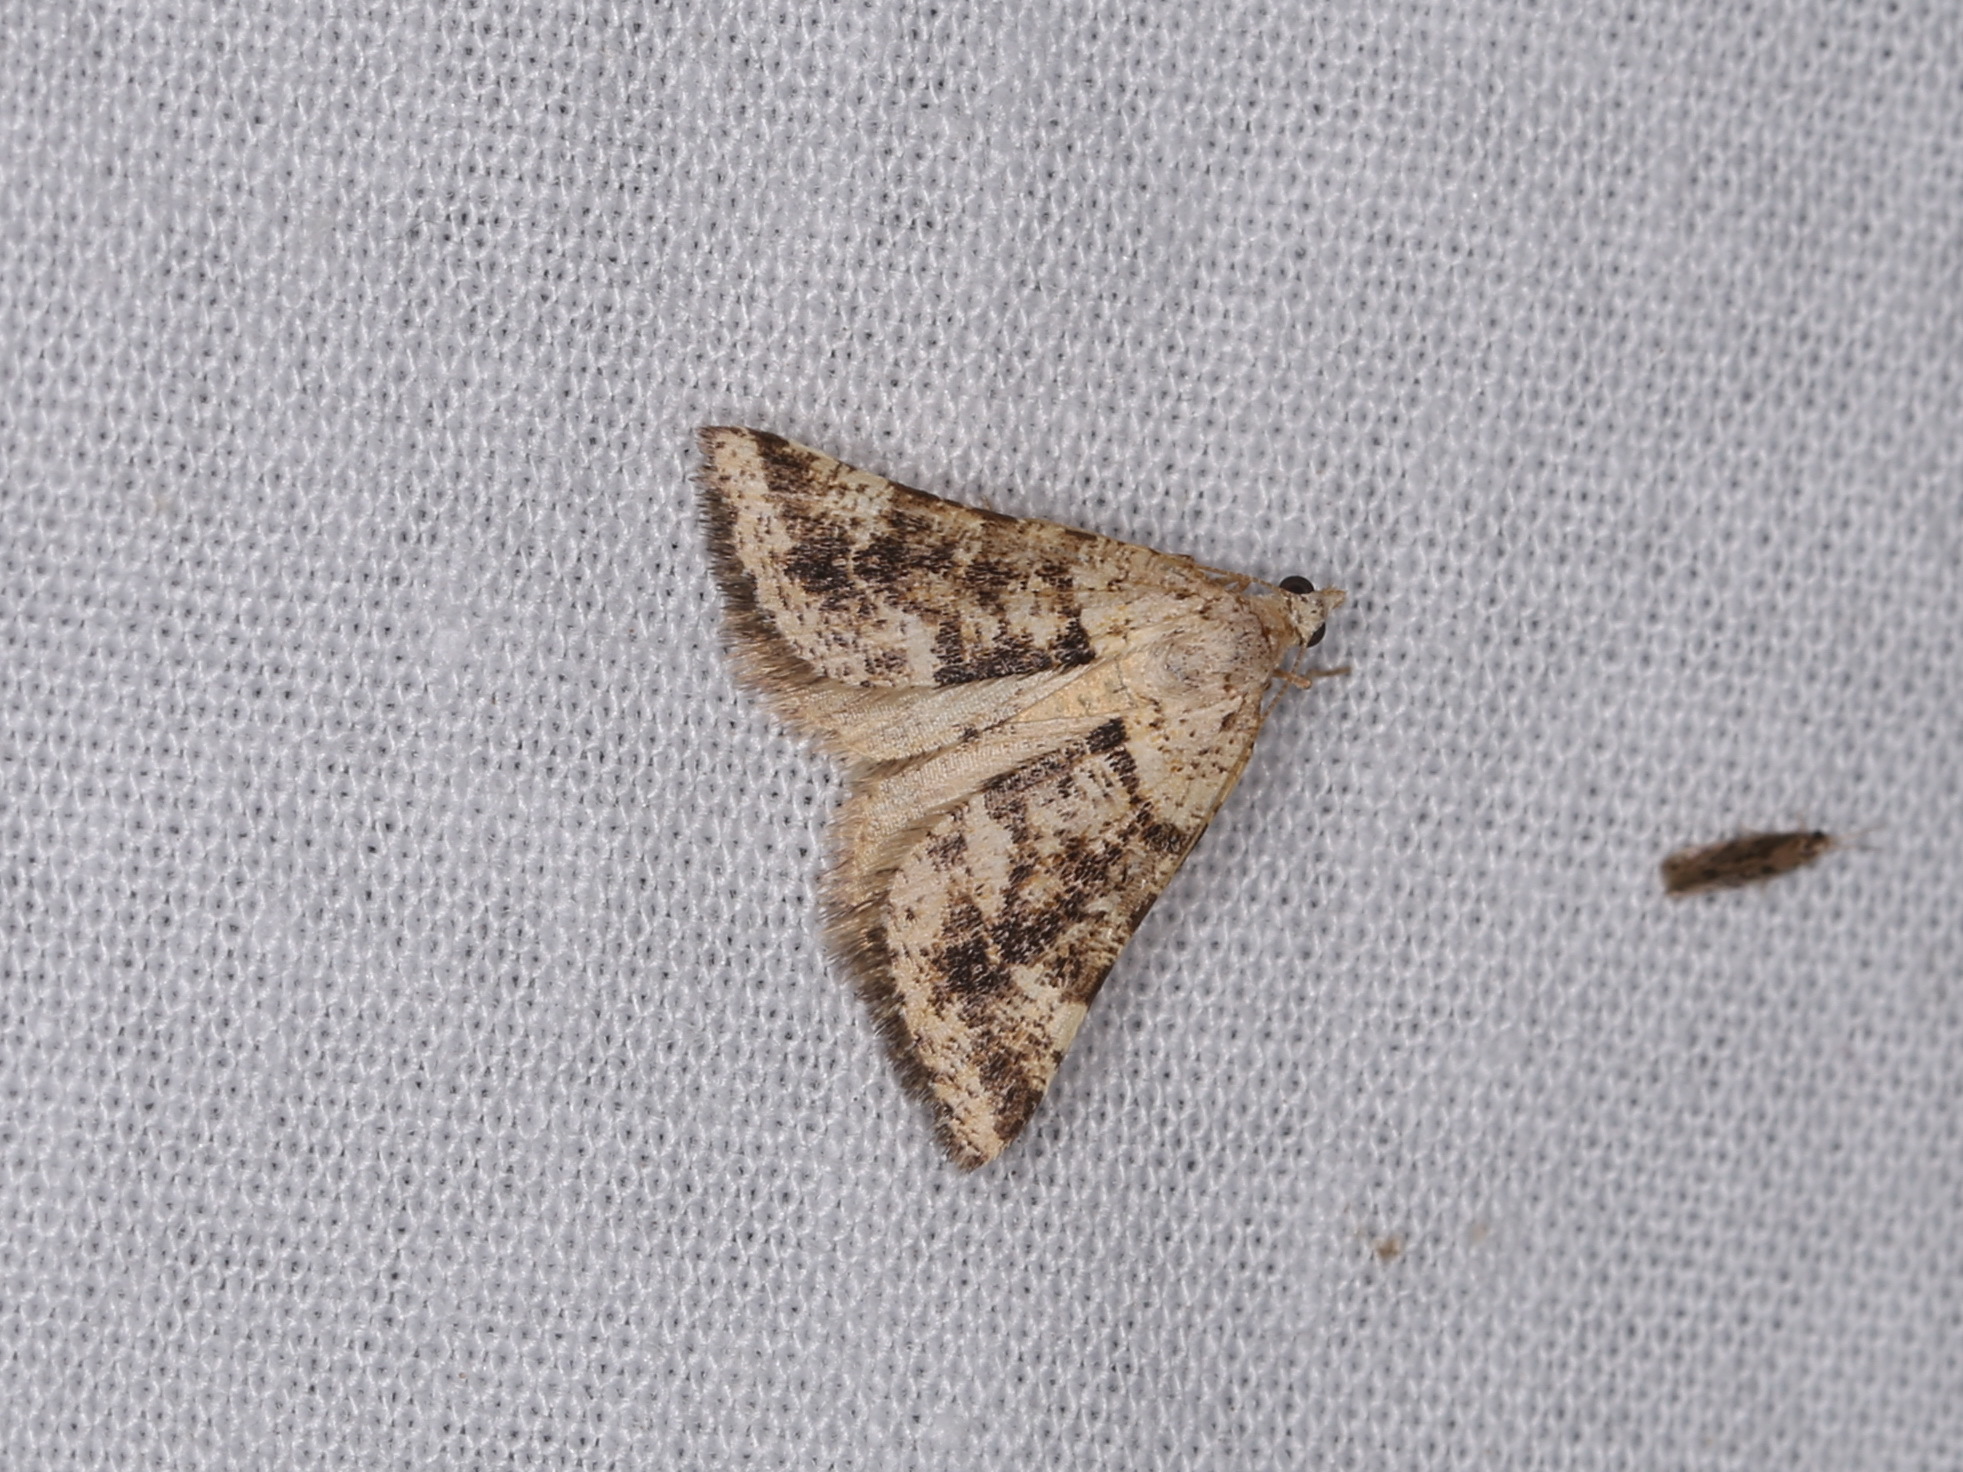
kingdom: Animalia
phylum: Arthropoda
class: Insecta
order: Lepidoptera
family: Geometridae
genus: Paramelora
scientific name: Paramelora zophodesma
